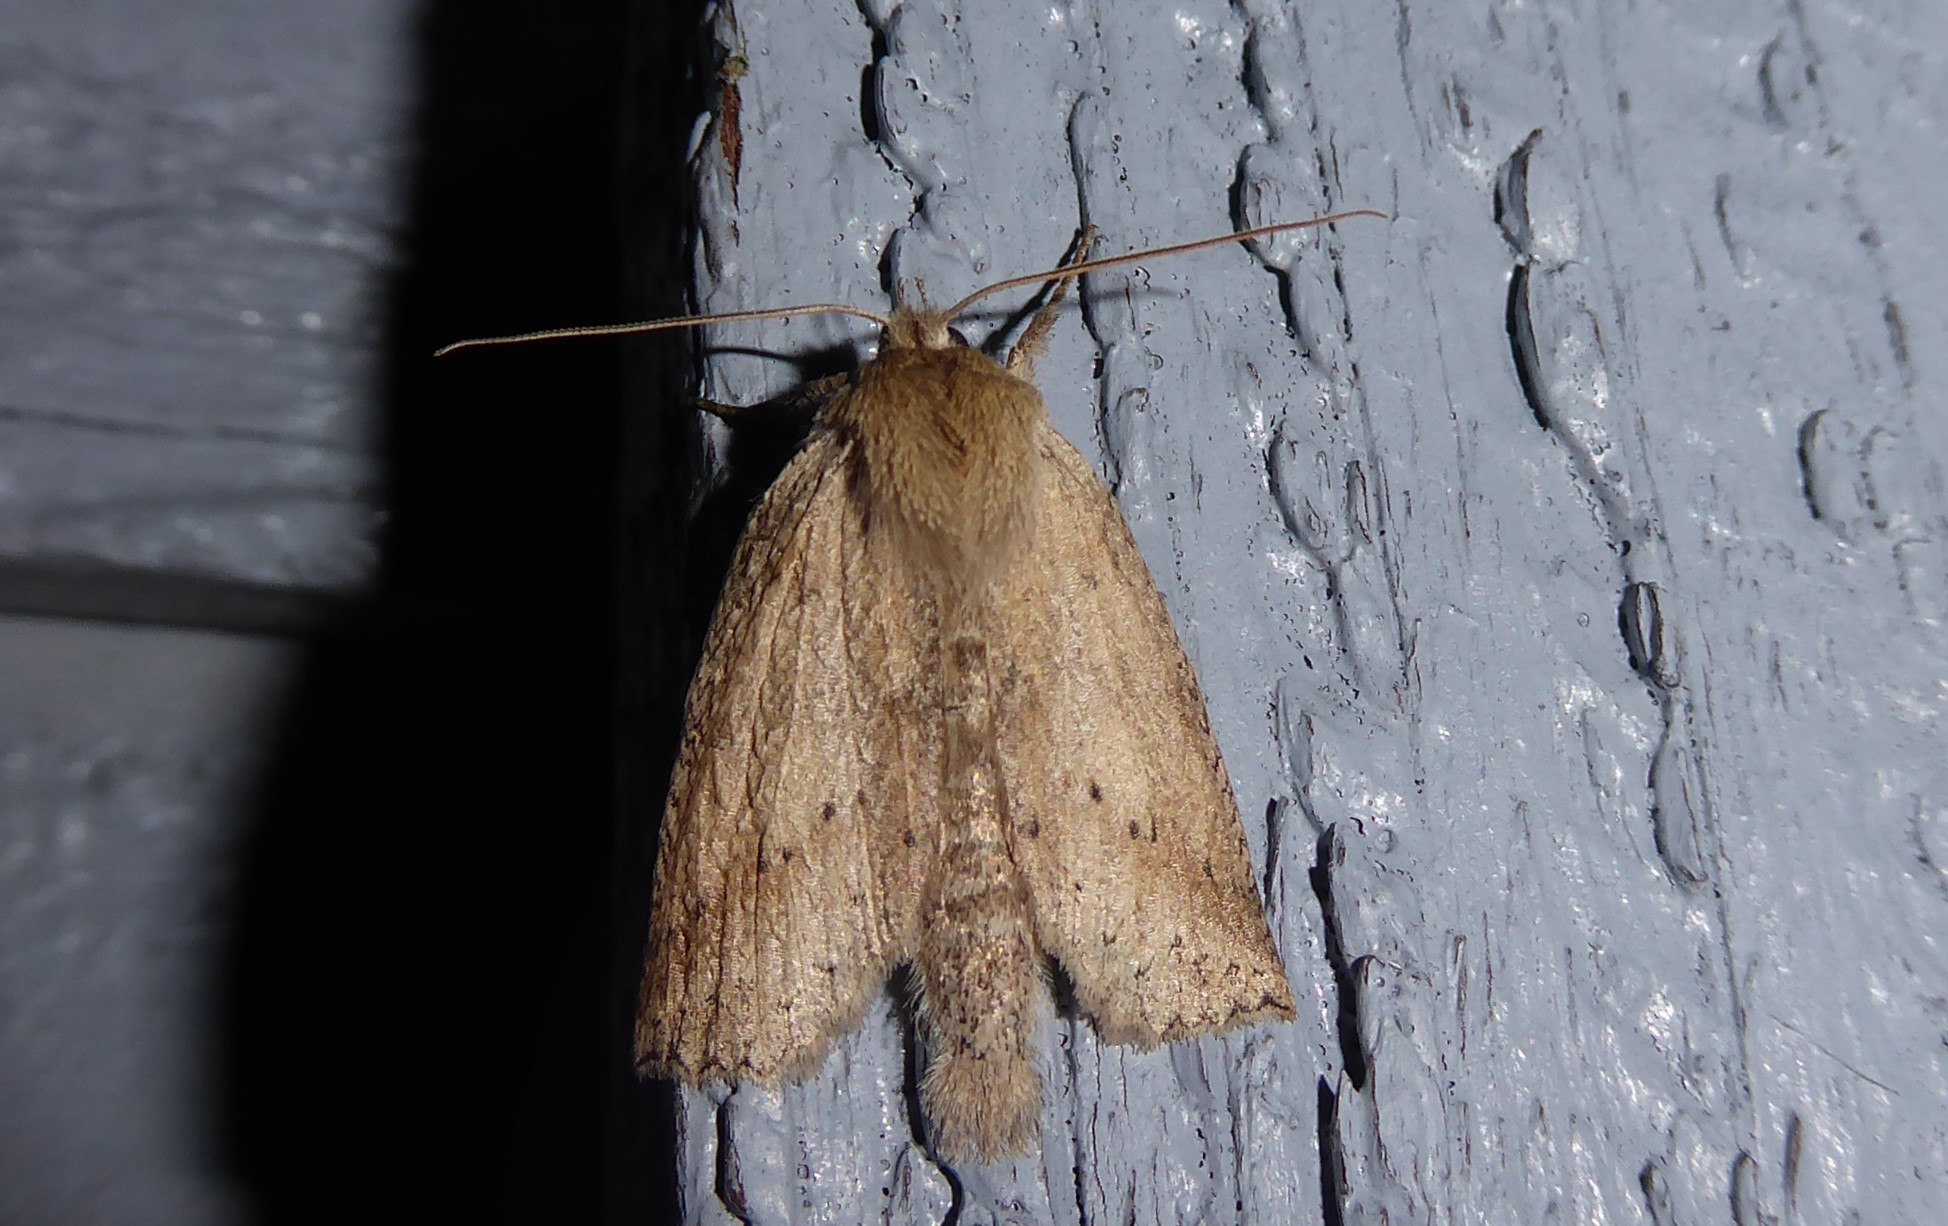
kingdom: Animalia
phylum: Arthropoda
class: Insecta
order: Lepidoptera
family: Geometridae
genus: Declana
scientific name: Declana leptomera
